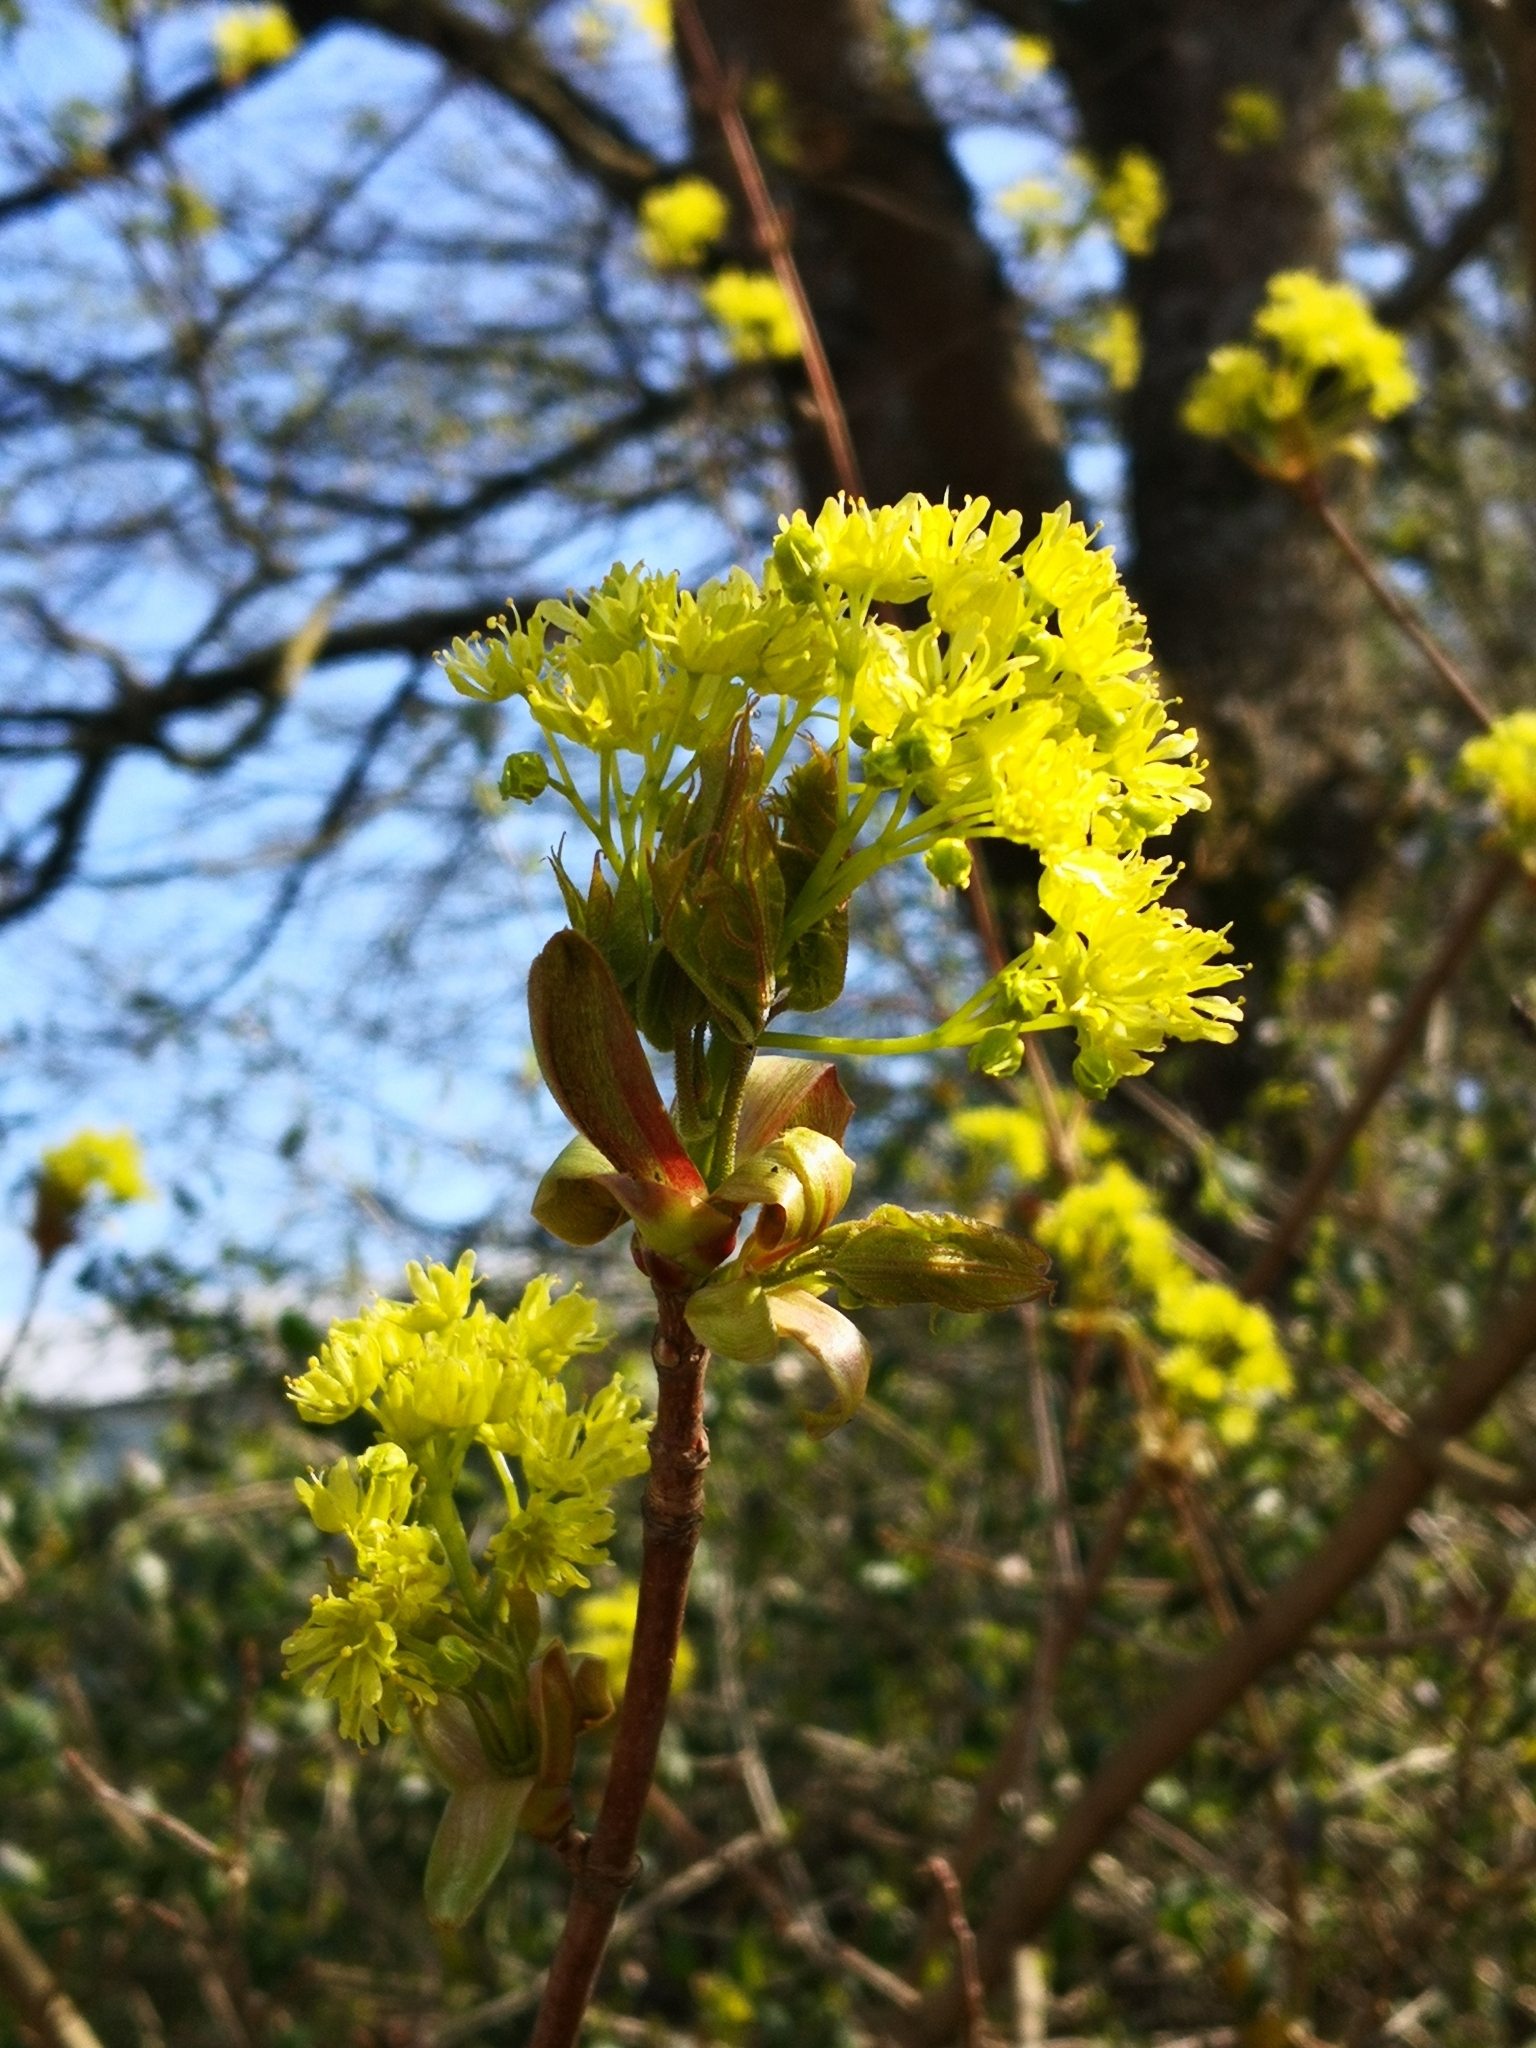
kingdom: Plantae
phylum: Tracheophyta
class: Magnoliopsida
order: Sapindales
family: Sapindaceae
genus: Acer
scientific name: Acer platanoides
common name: Norway maple
